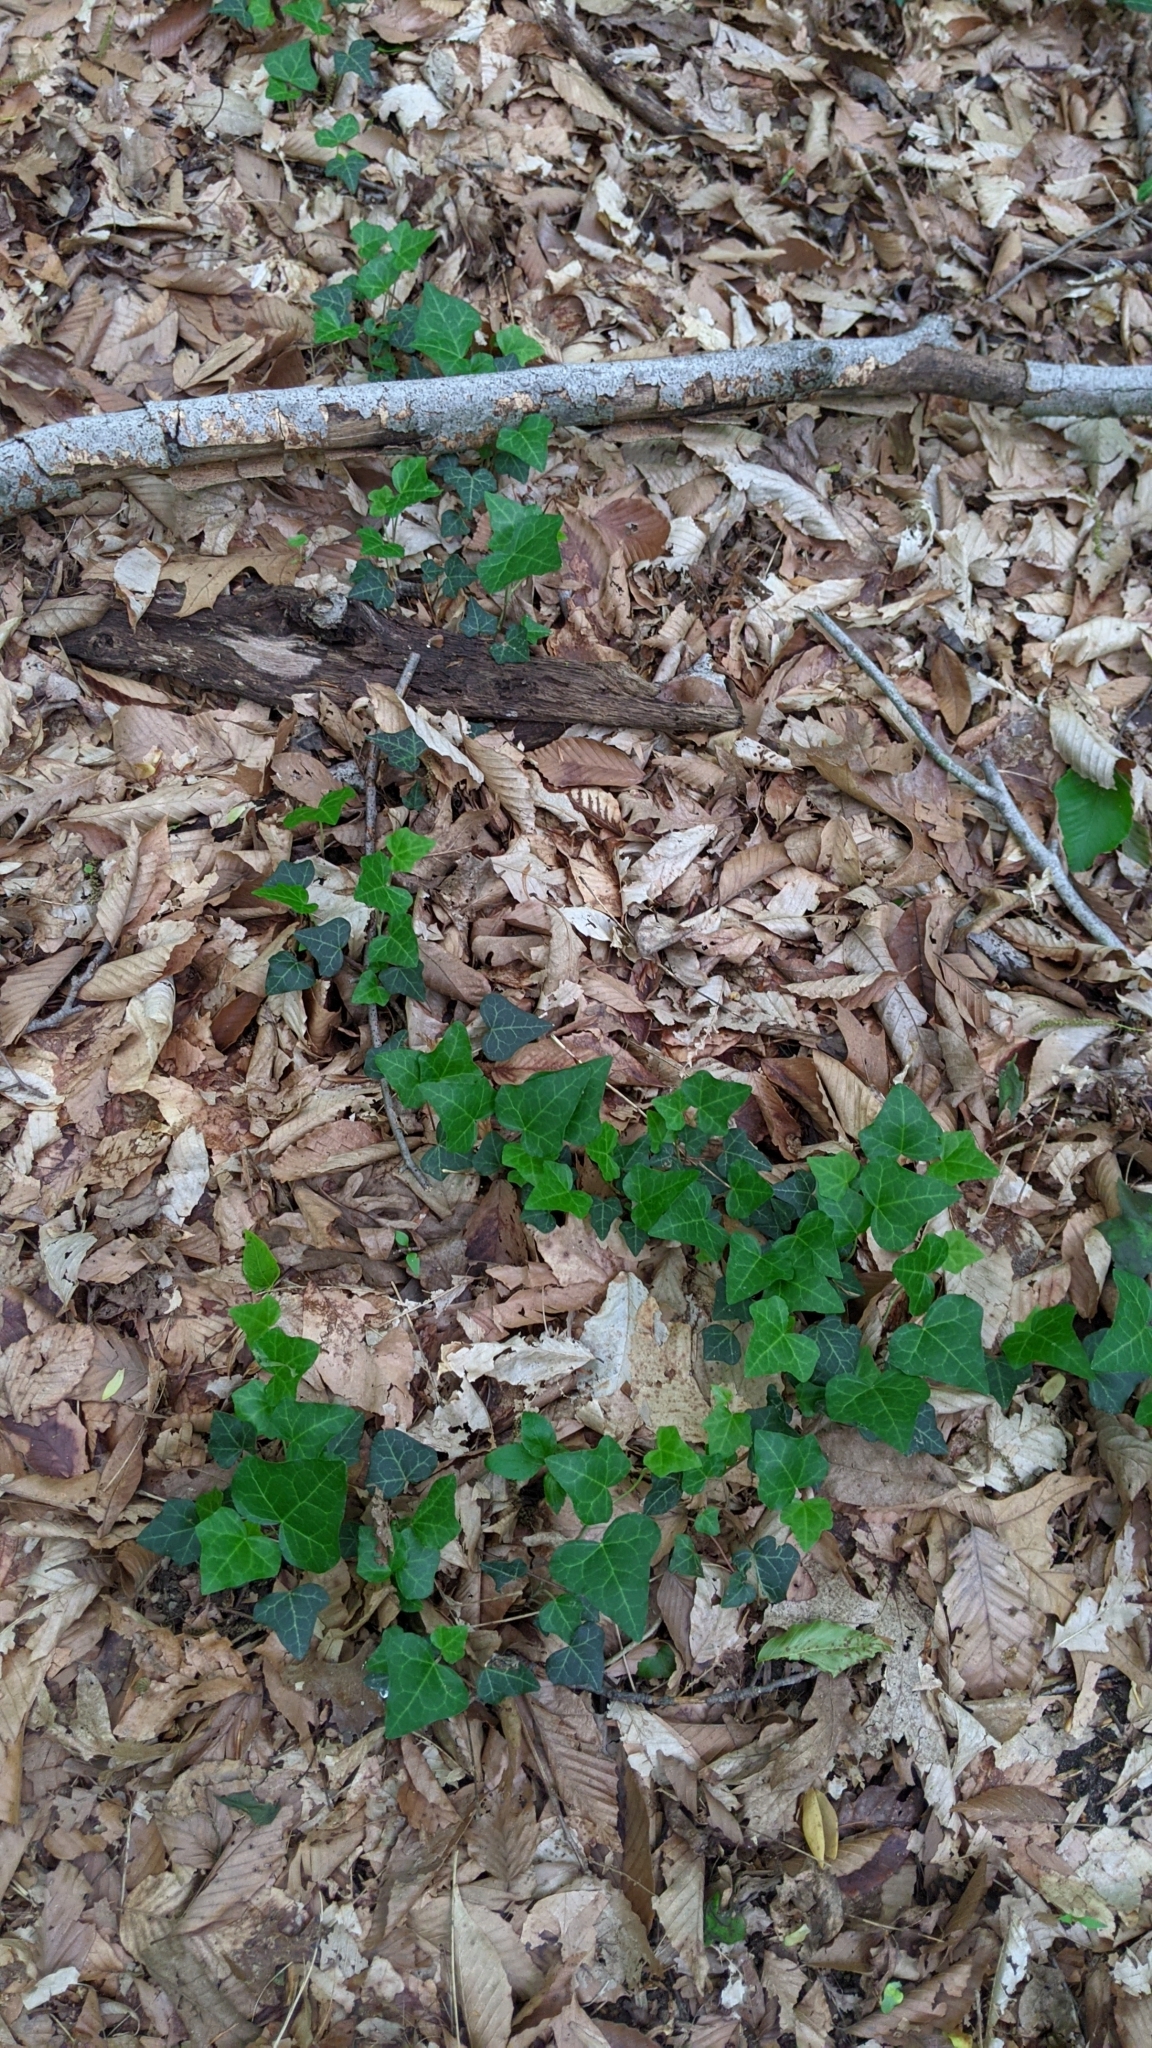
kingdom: Plantae
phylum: Tracheophyta
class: Magnoliopsida
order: Apiales
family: Araliaceae
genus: Hedera
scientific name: Hedera helix
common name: Ivy
